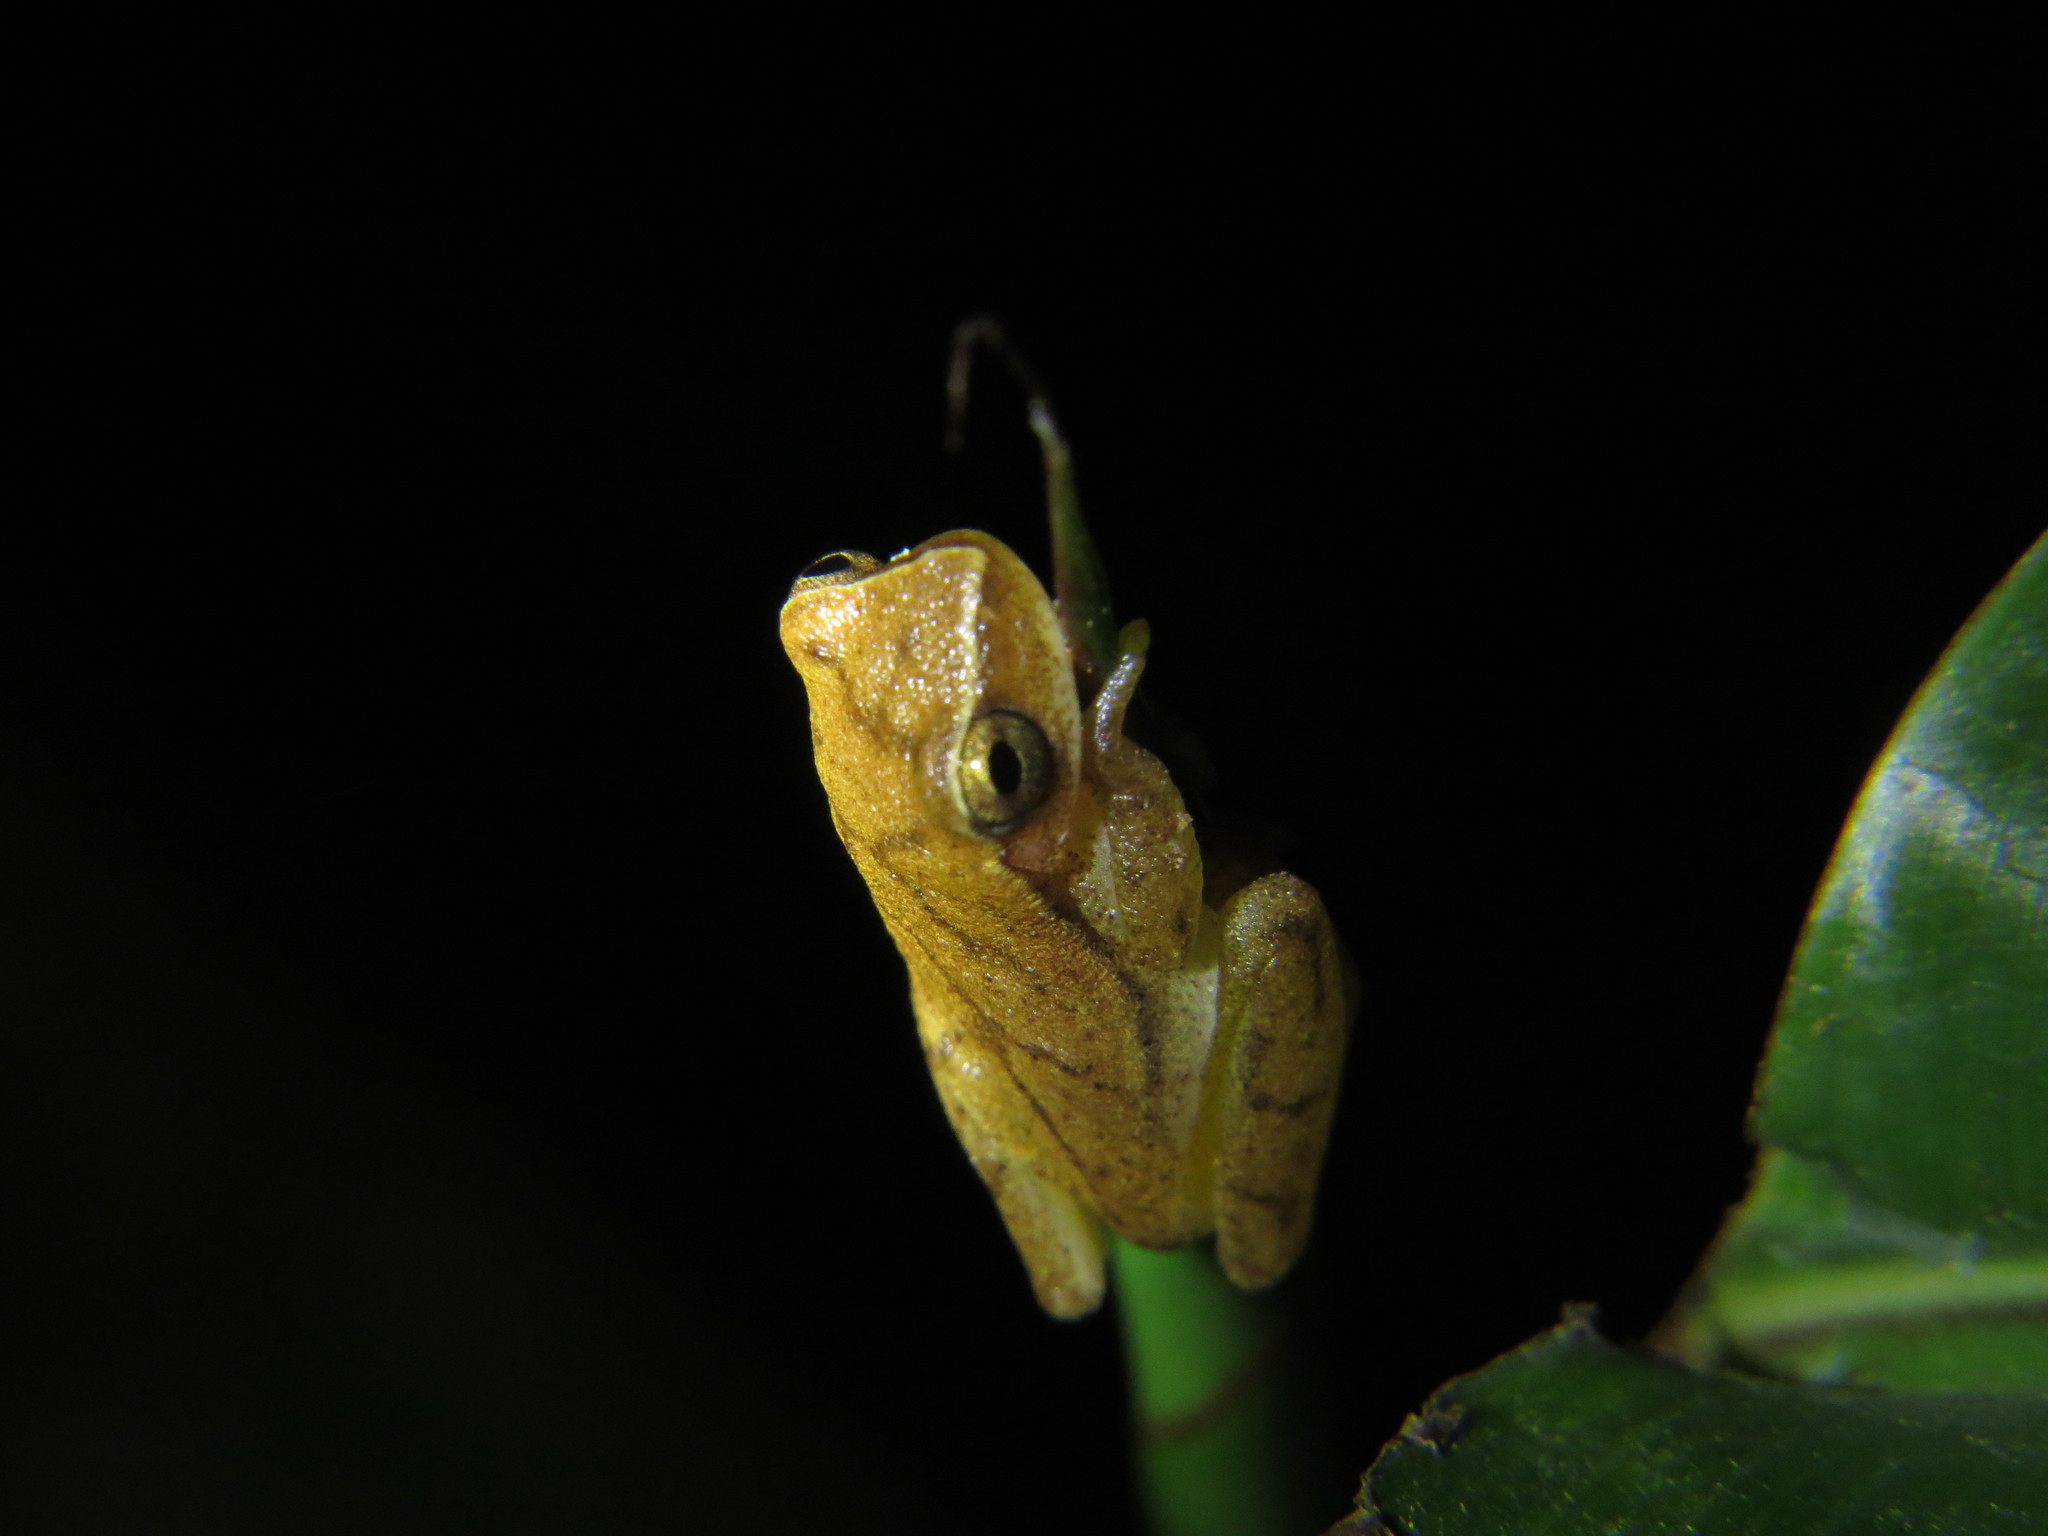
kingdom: Animalia
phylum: Chordata
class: Amphibia
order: Anura
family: Hylidae
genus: Dendropsophus
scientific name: Dendropsophus microcephalus
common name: Small-headed treefrog
